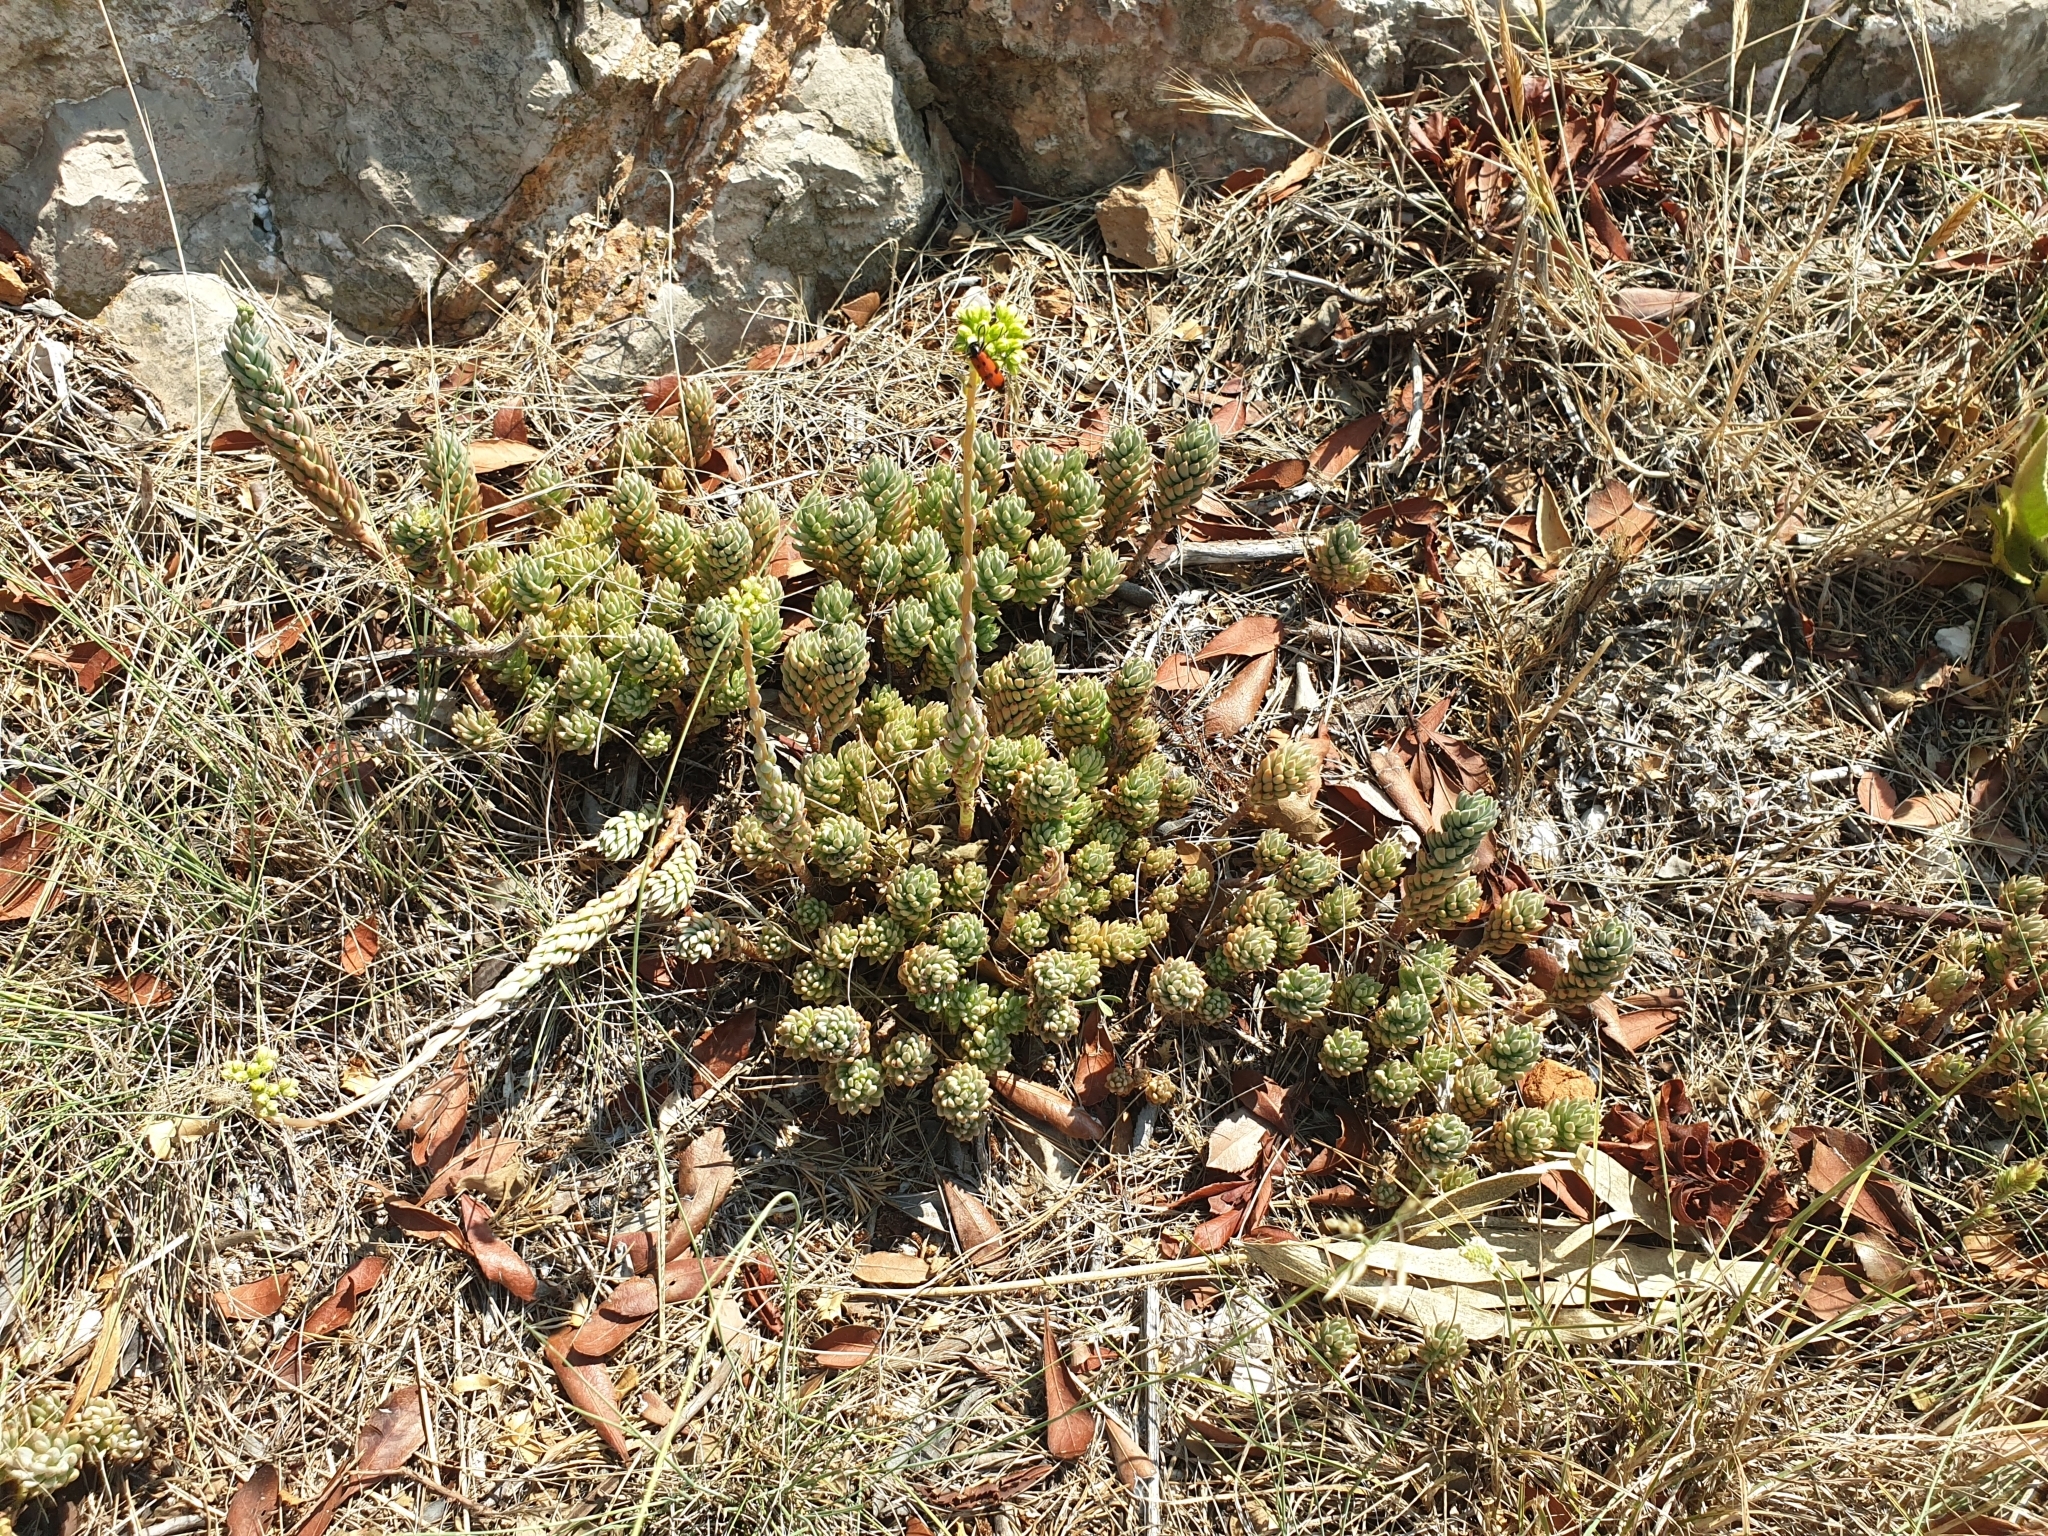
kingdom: Plantae
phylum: Tracheophyta
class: Magnoliopsida
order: Saxifragales
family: Crassulaceae
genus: Petrosedum
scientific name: Petrosedum sediforme
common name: Pale stonecrop
